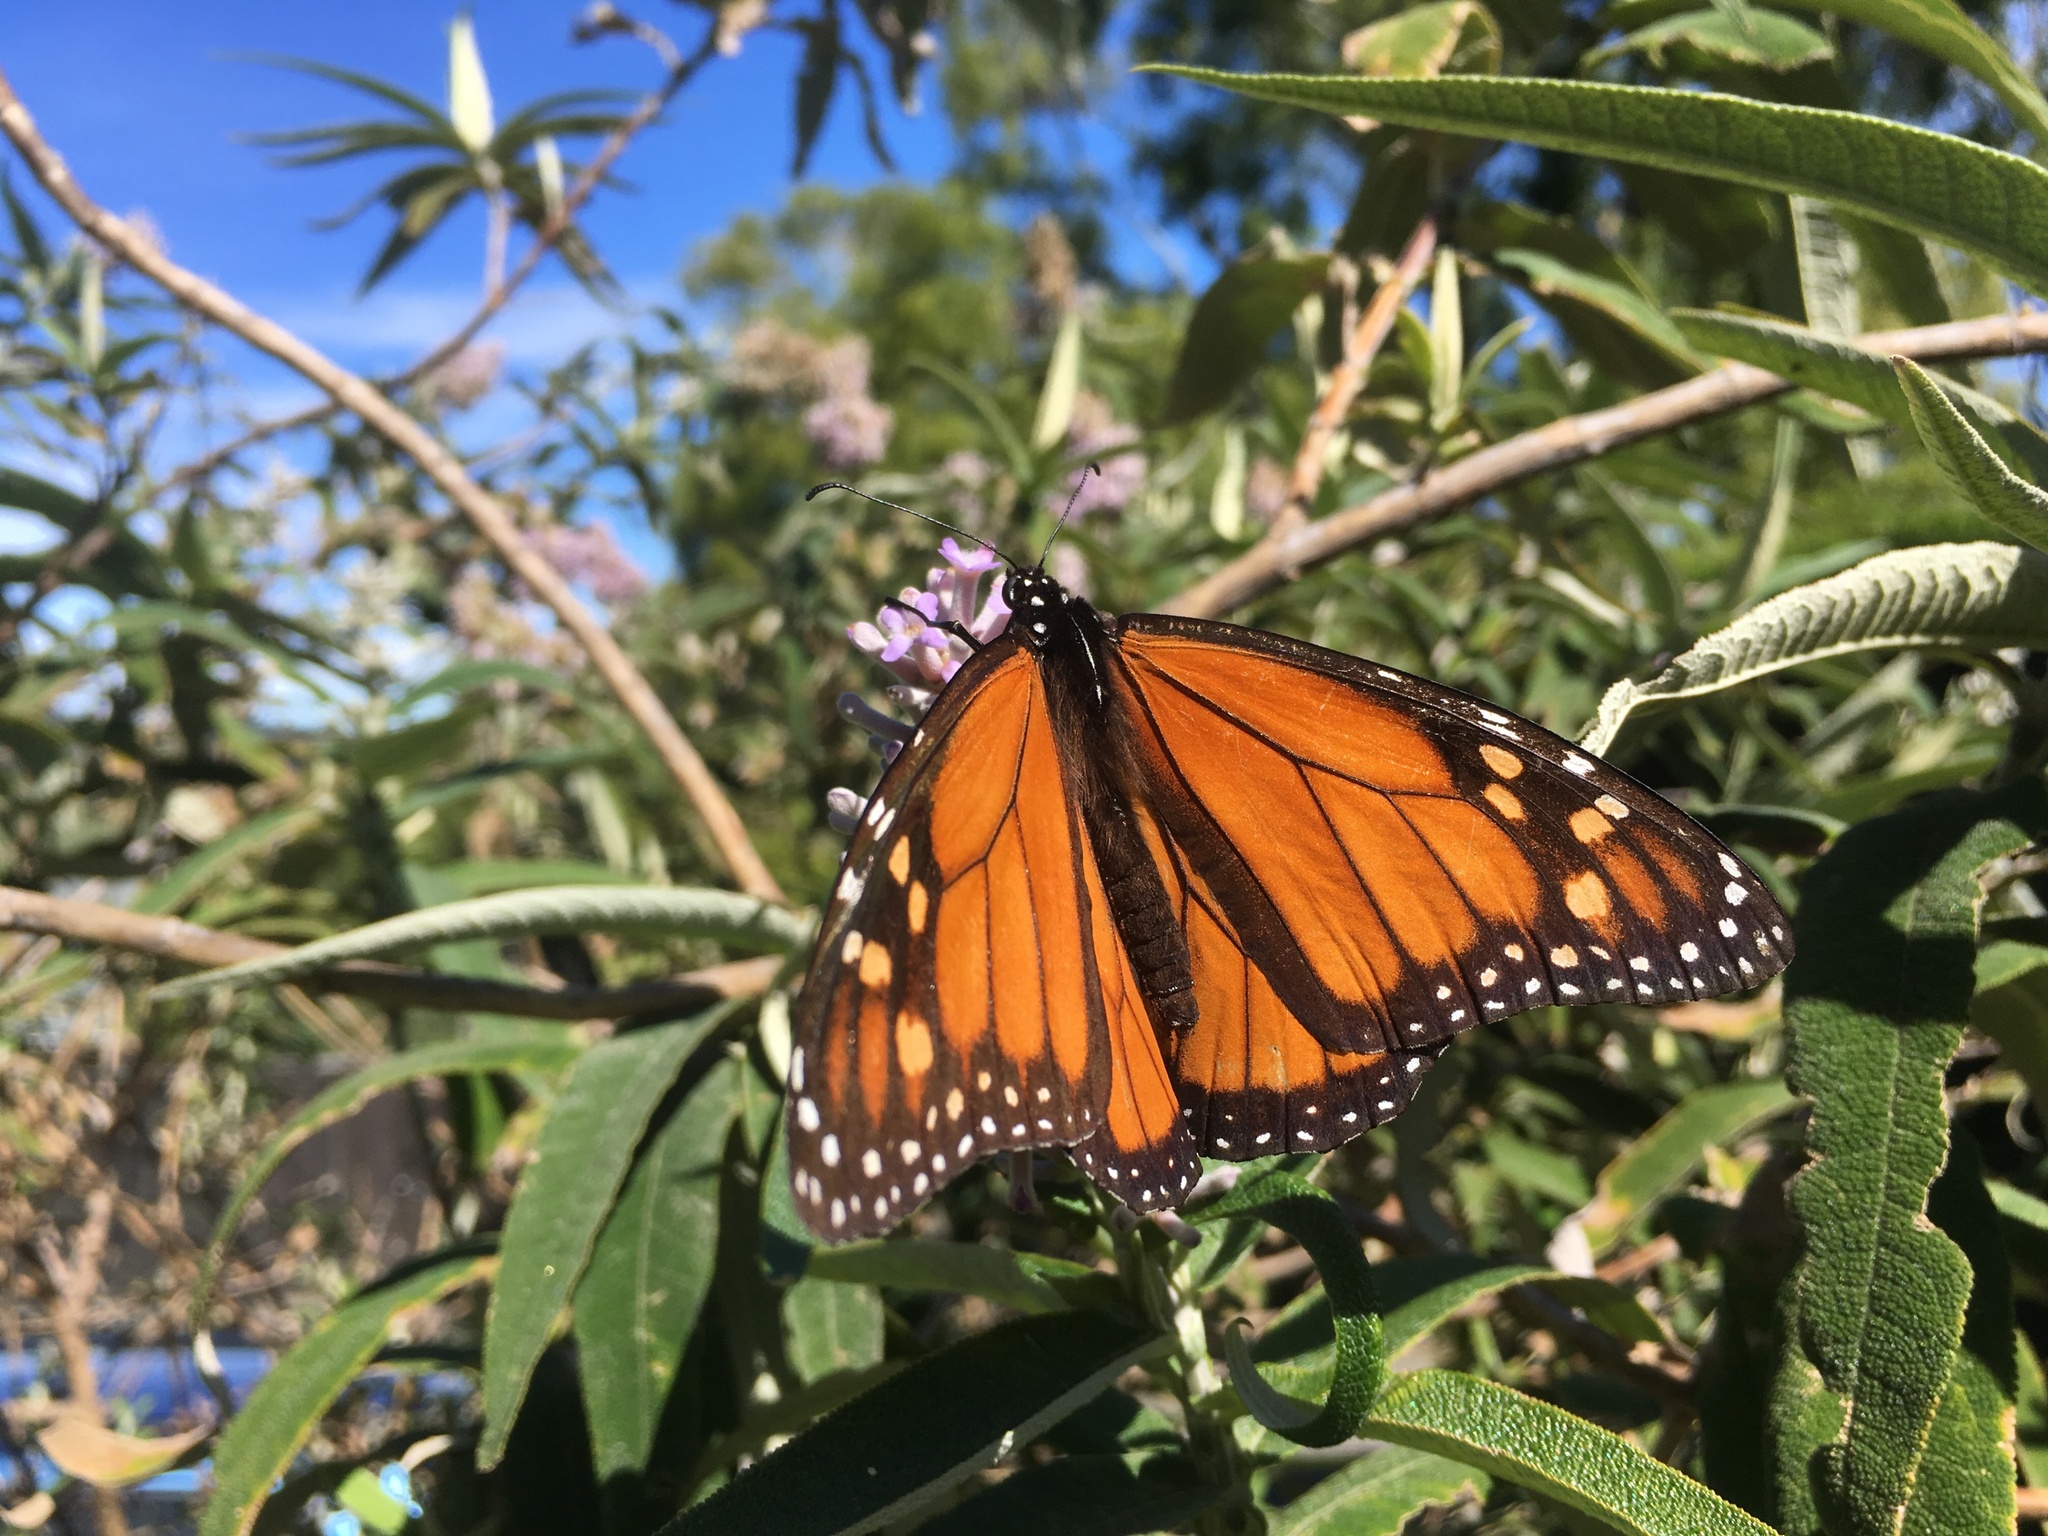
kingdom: Animalia
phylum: Arthropoda
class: Insecta
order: Lepidoptera
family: Nymphalidae
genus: Danaus
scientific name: Danaus plexippus
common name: Monarch
